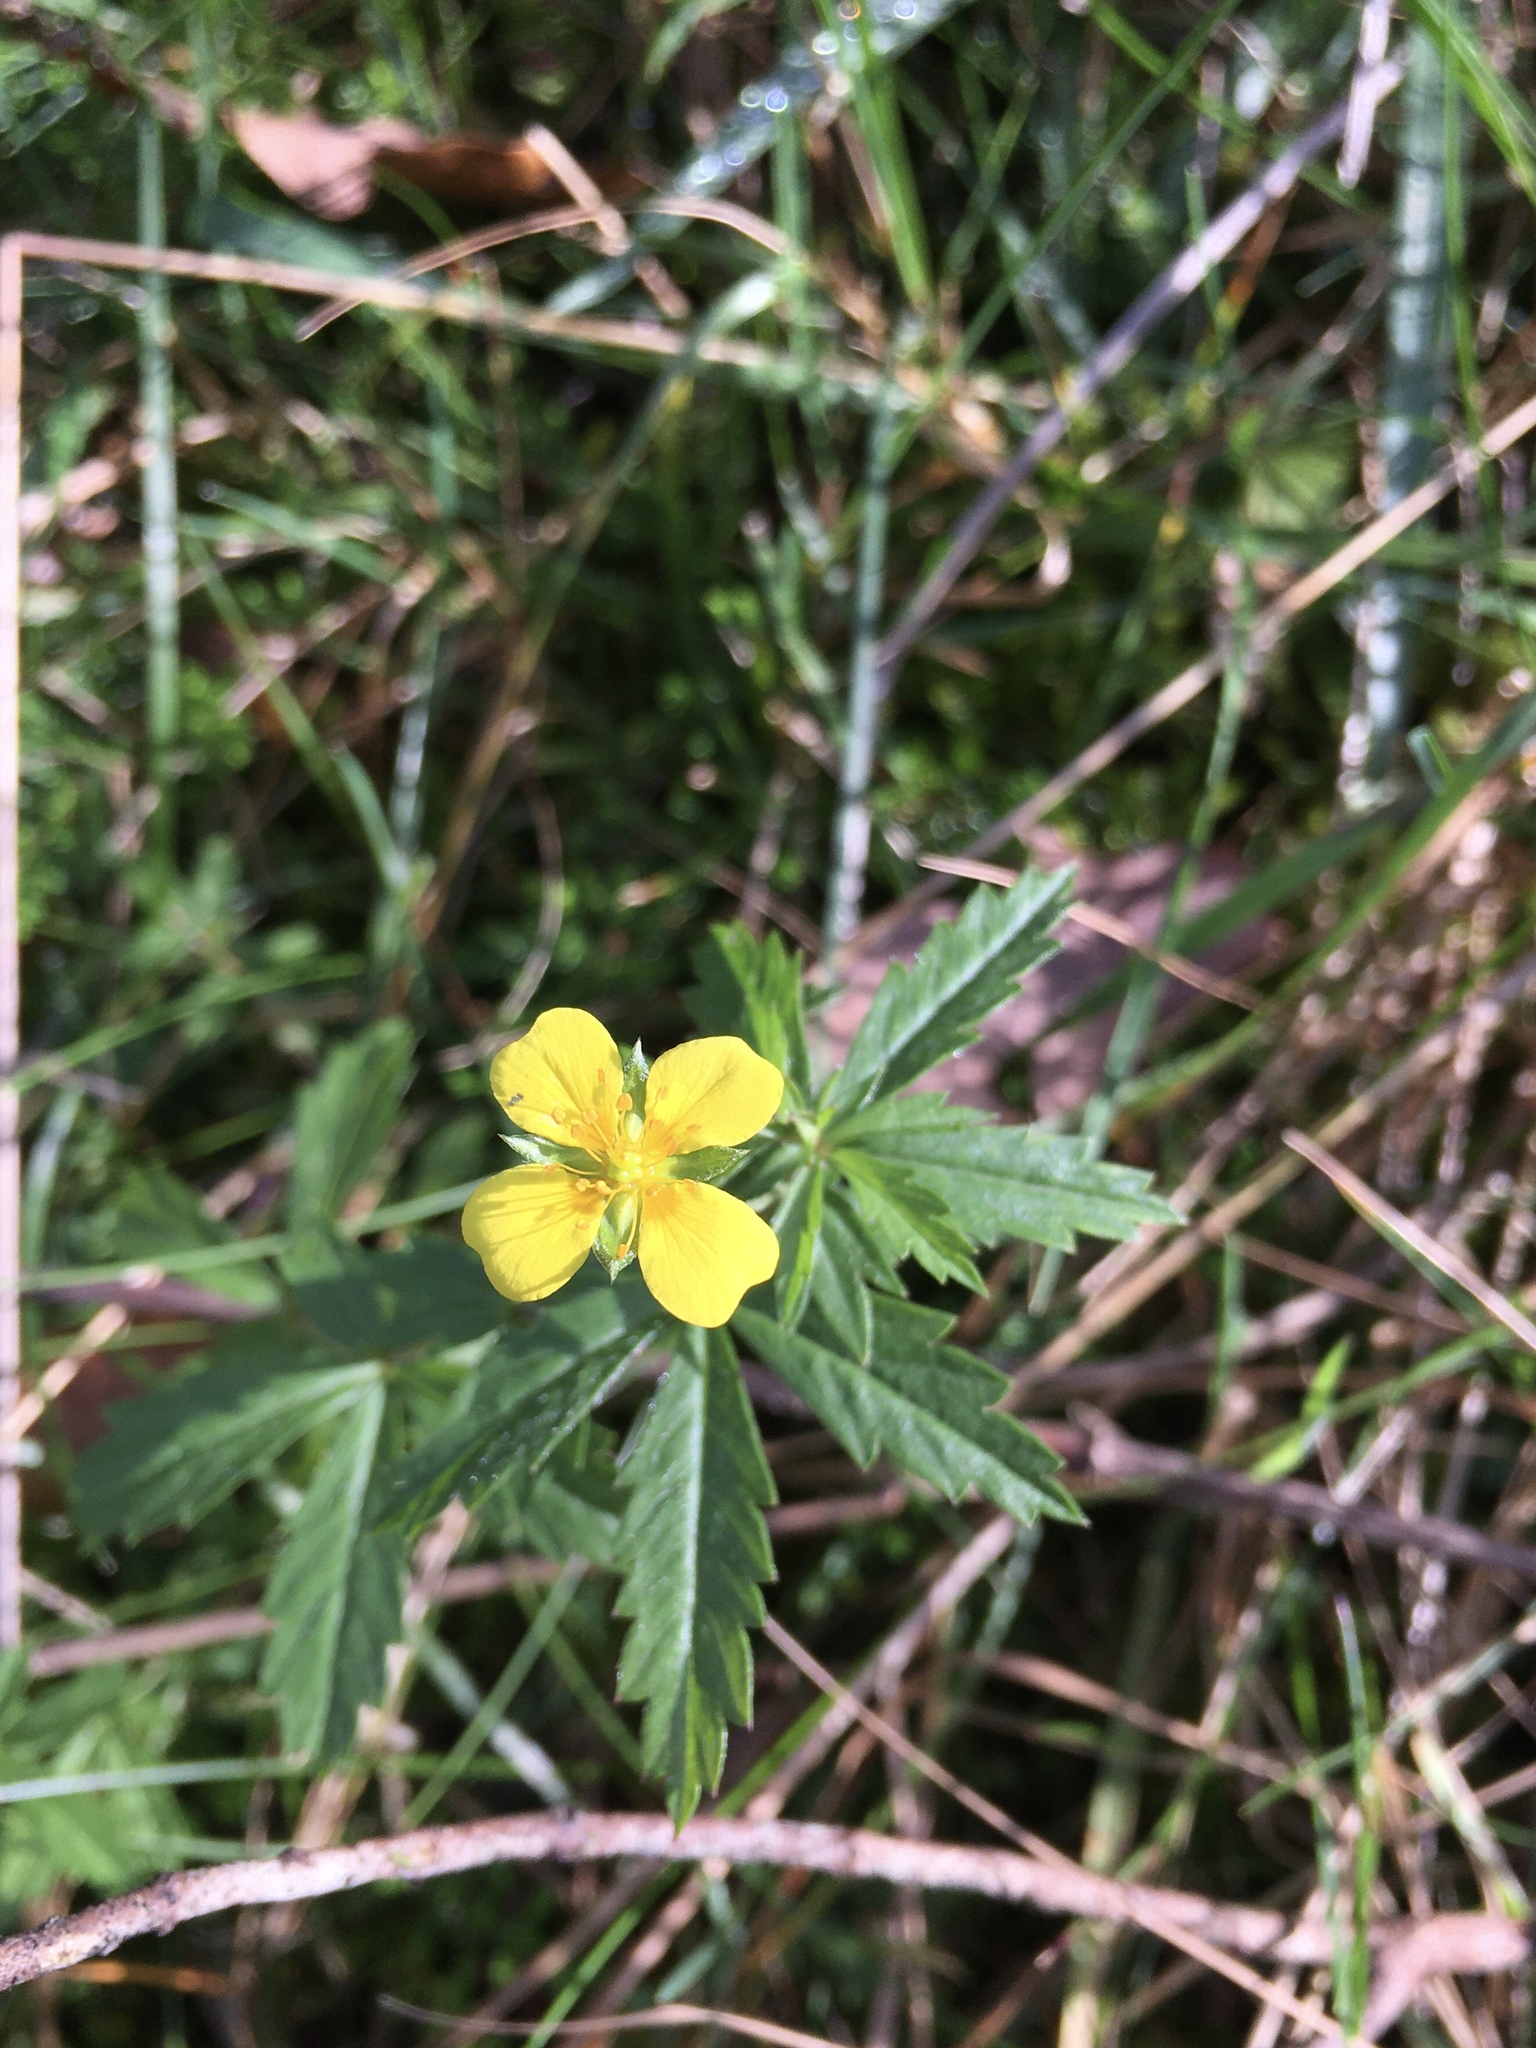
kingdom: Plantae
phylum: Tracheophyta
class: Magnoliopsida
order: Rosales
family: Rosaceae
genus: Potentilla
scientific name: Potentilla erecta
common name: Tormentil
